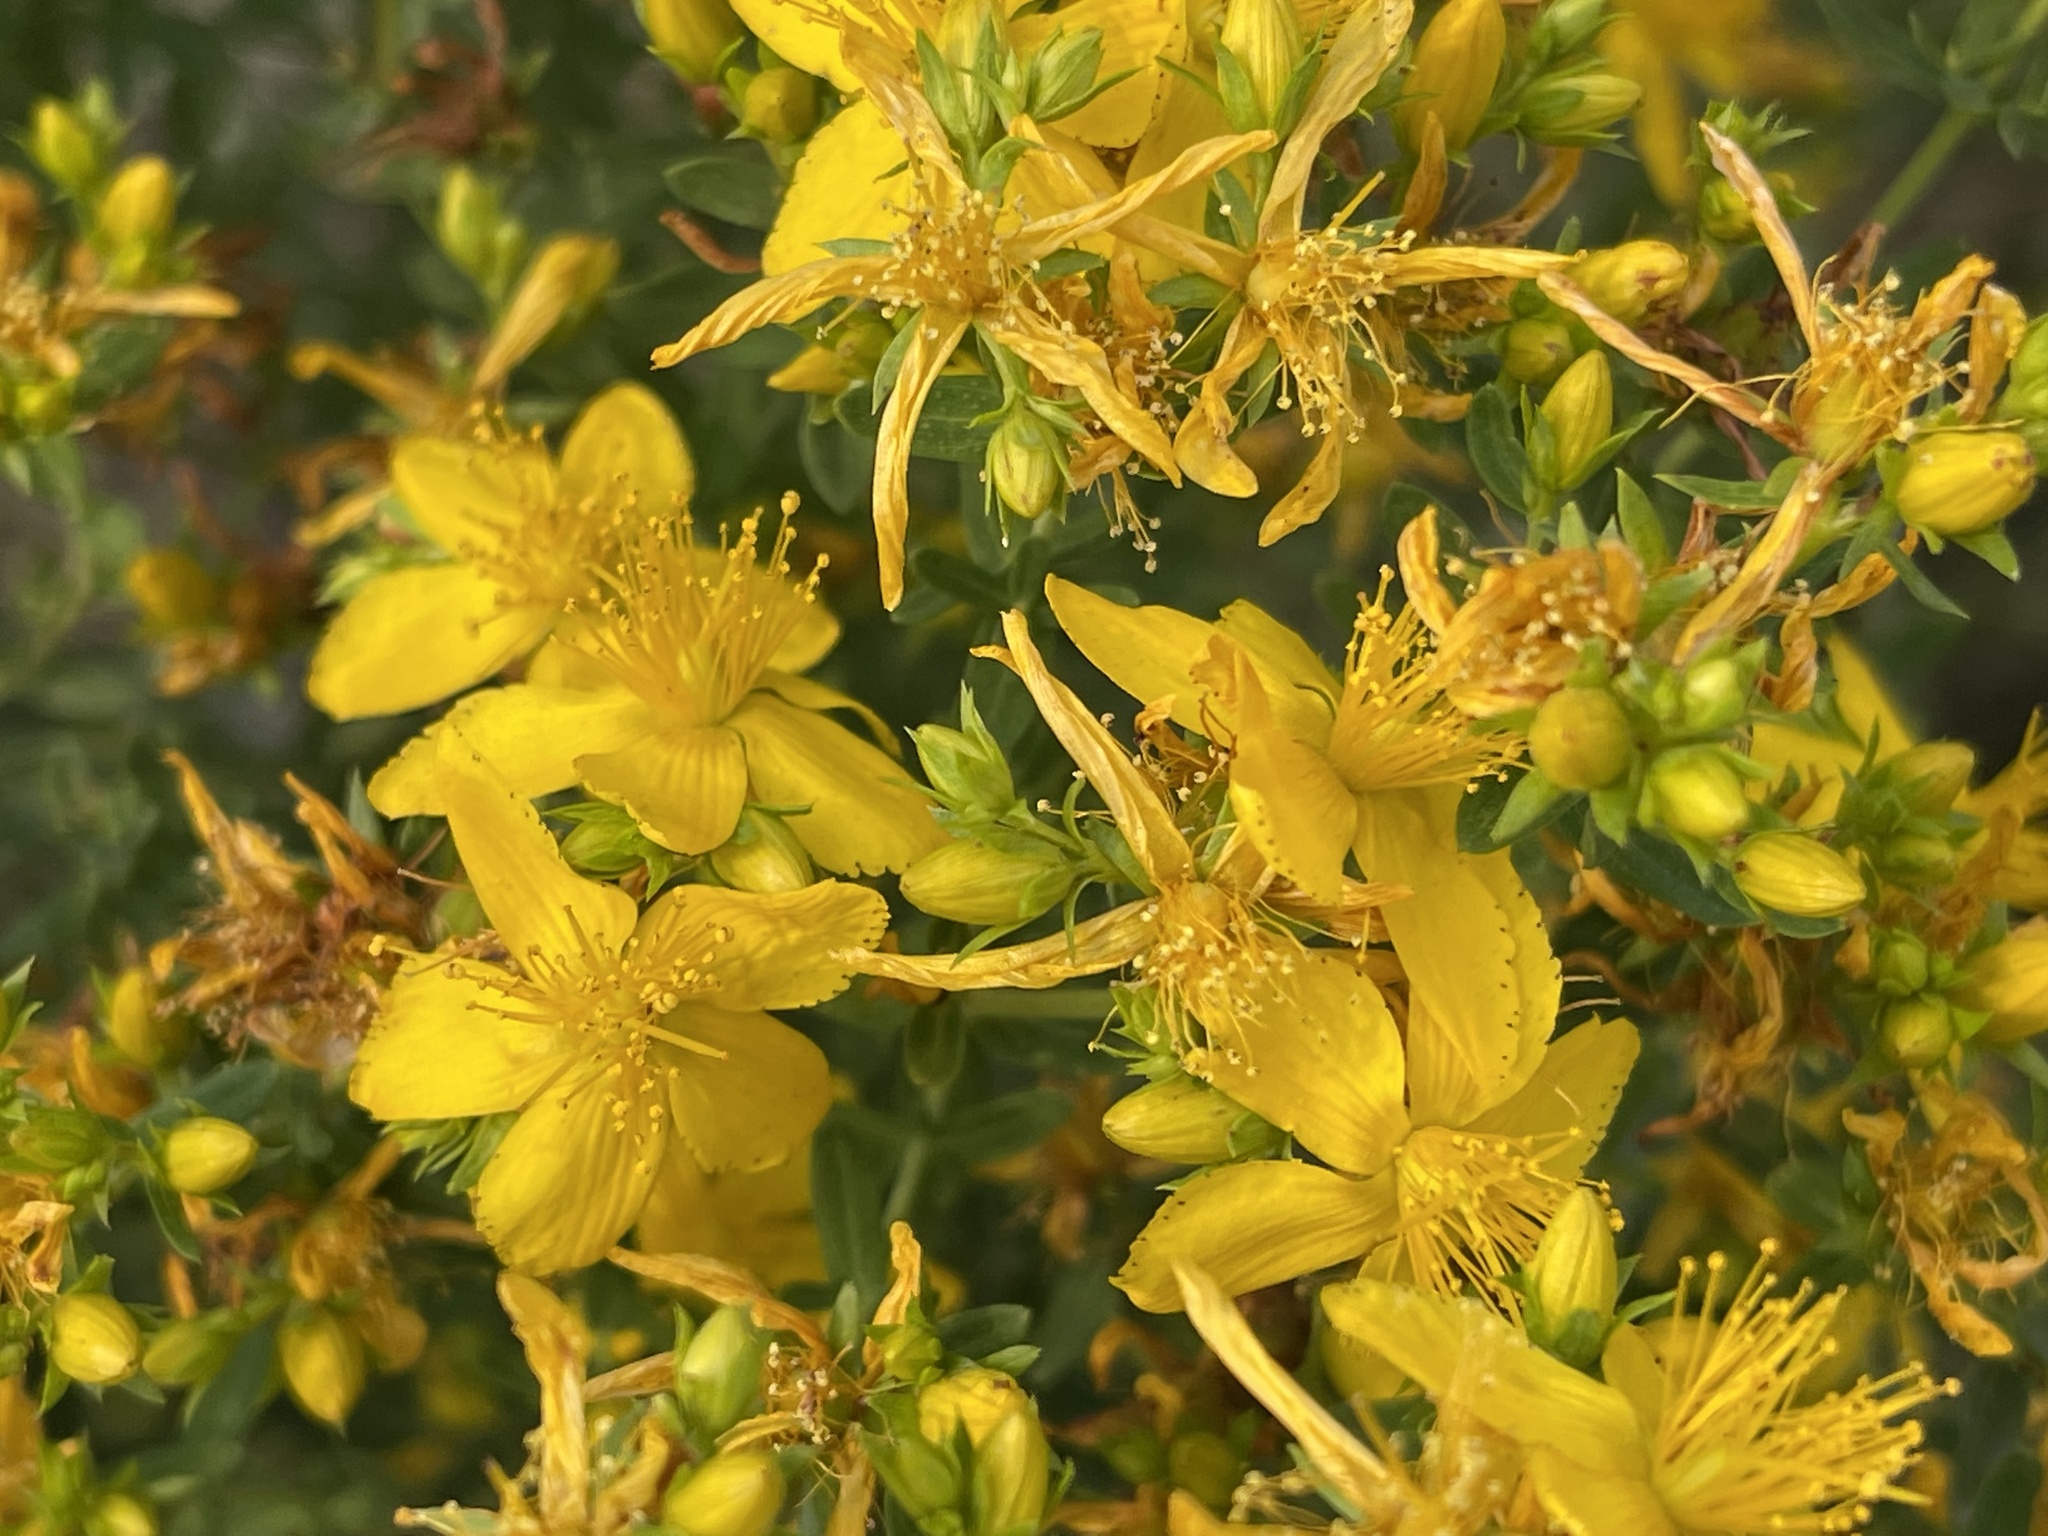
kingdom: Plantae
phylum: Tracheophyta
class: Magnoliopsida
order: Malpighiales
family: Hypericaceae
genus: Hypericum
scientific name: Hypericum perforatum
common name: Common st. johnswort
